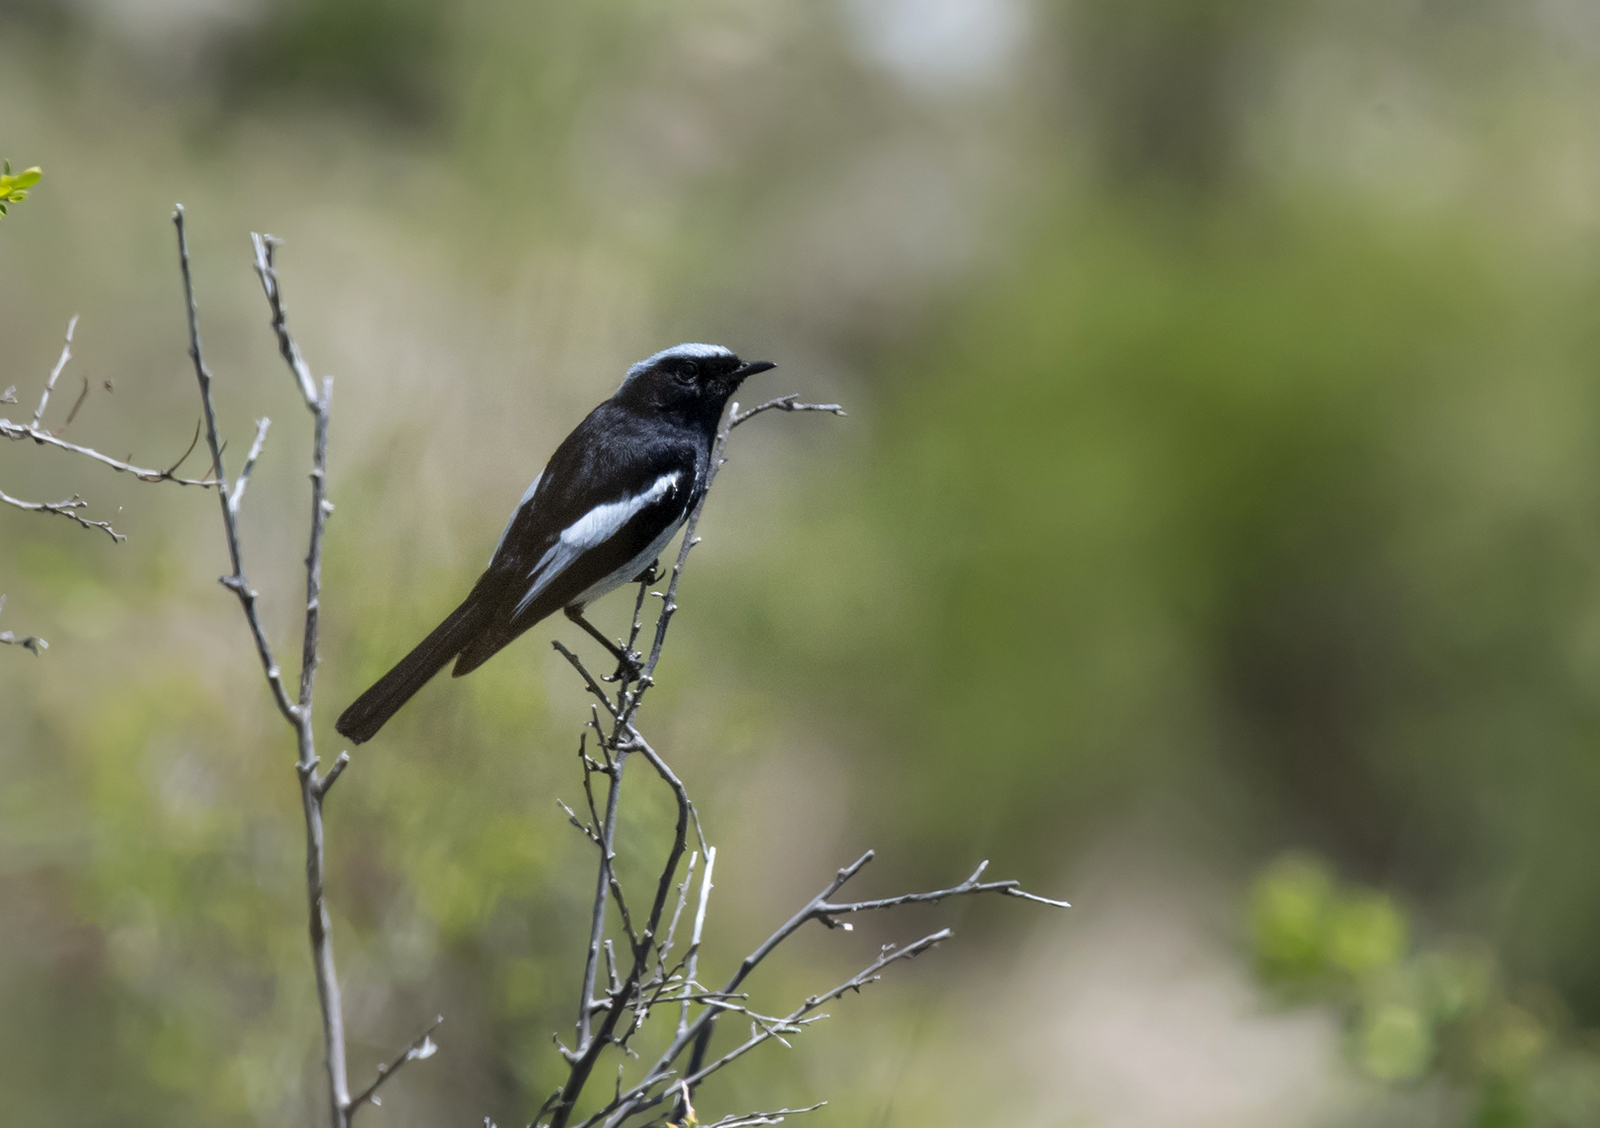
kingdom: Animalia
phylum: Chordata
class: Aves
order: Passeriformes
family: Muscicapidae
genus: Phoenicurus
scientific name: Phoenicurus coeruleocephala
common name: Blue-capped redstart
